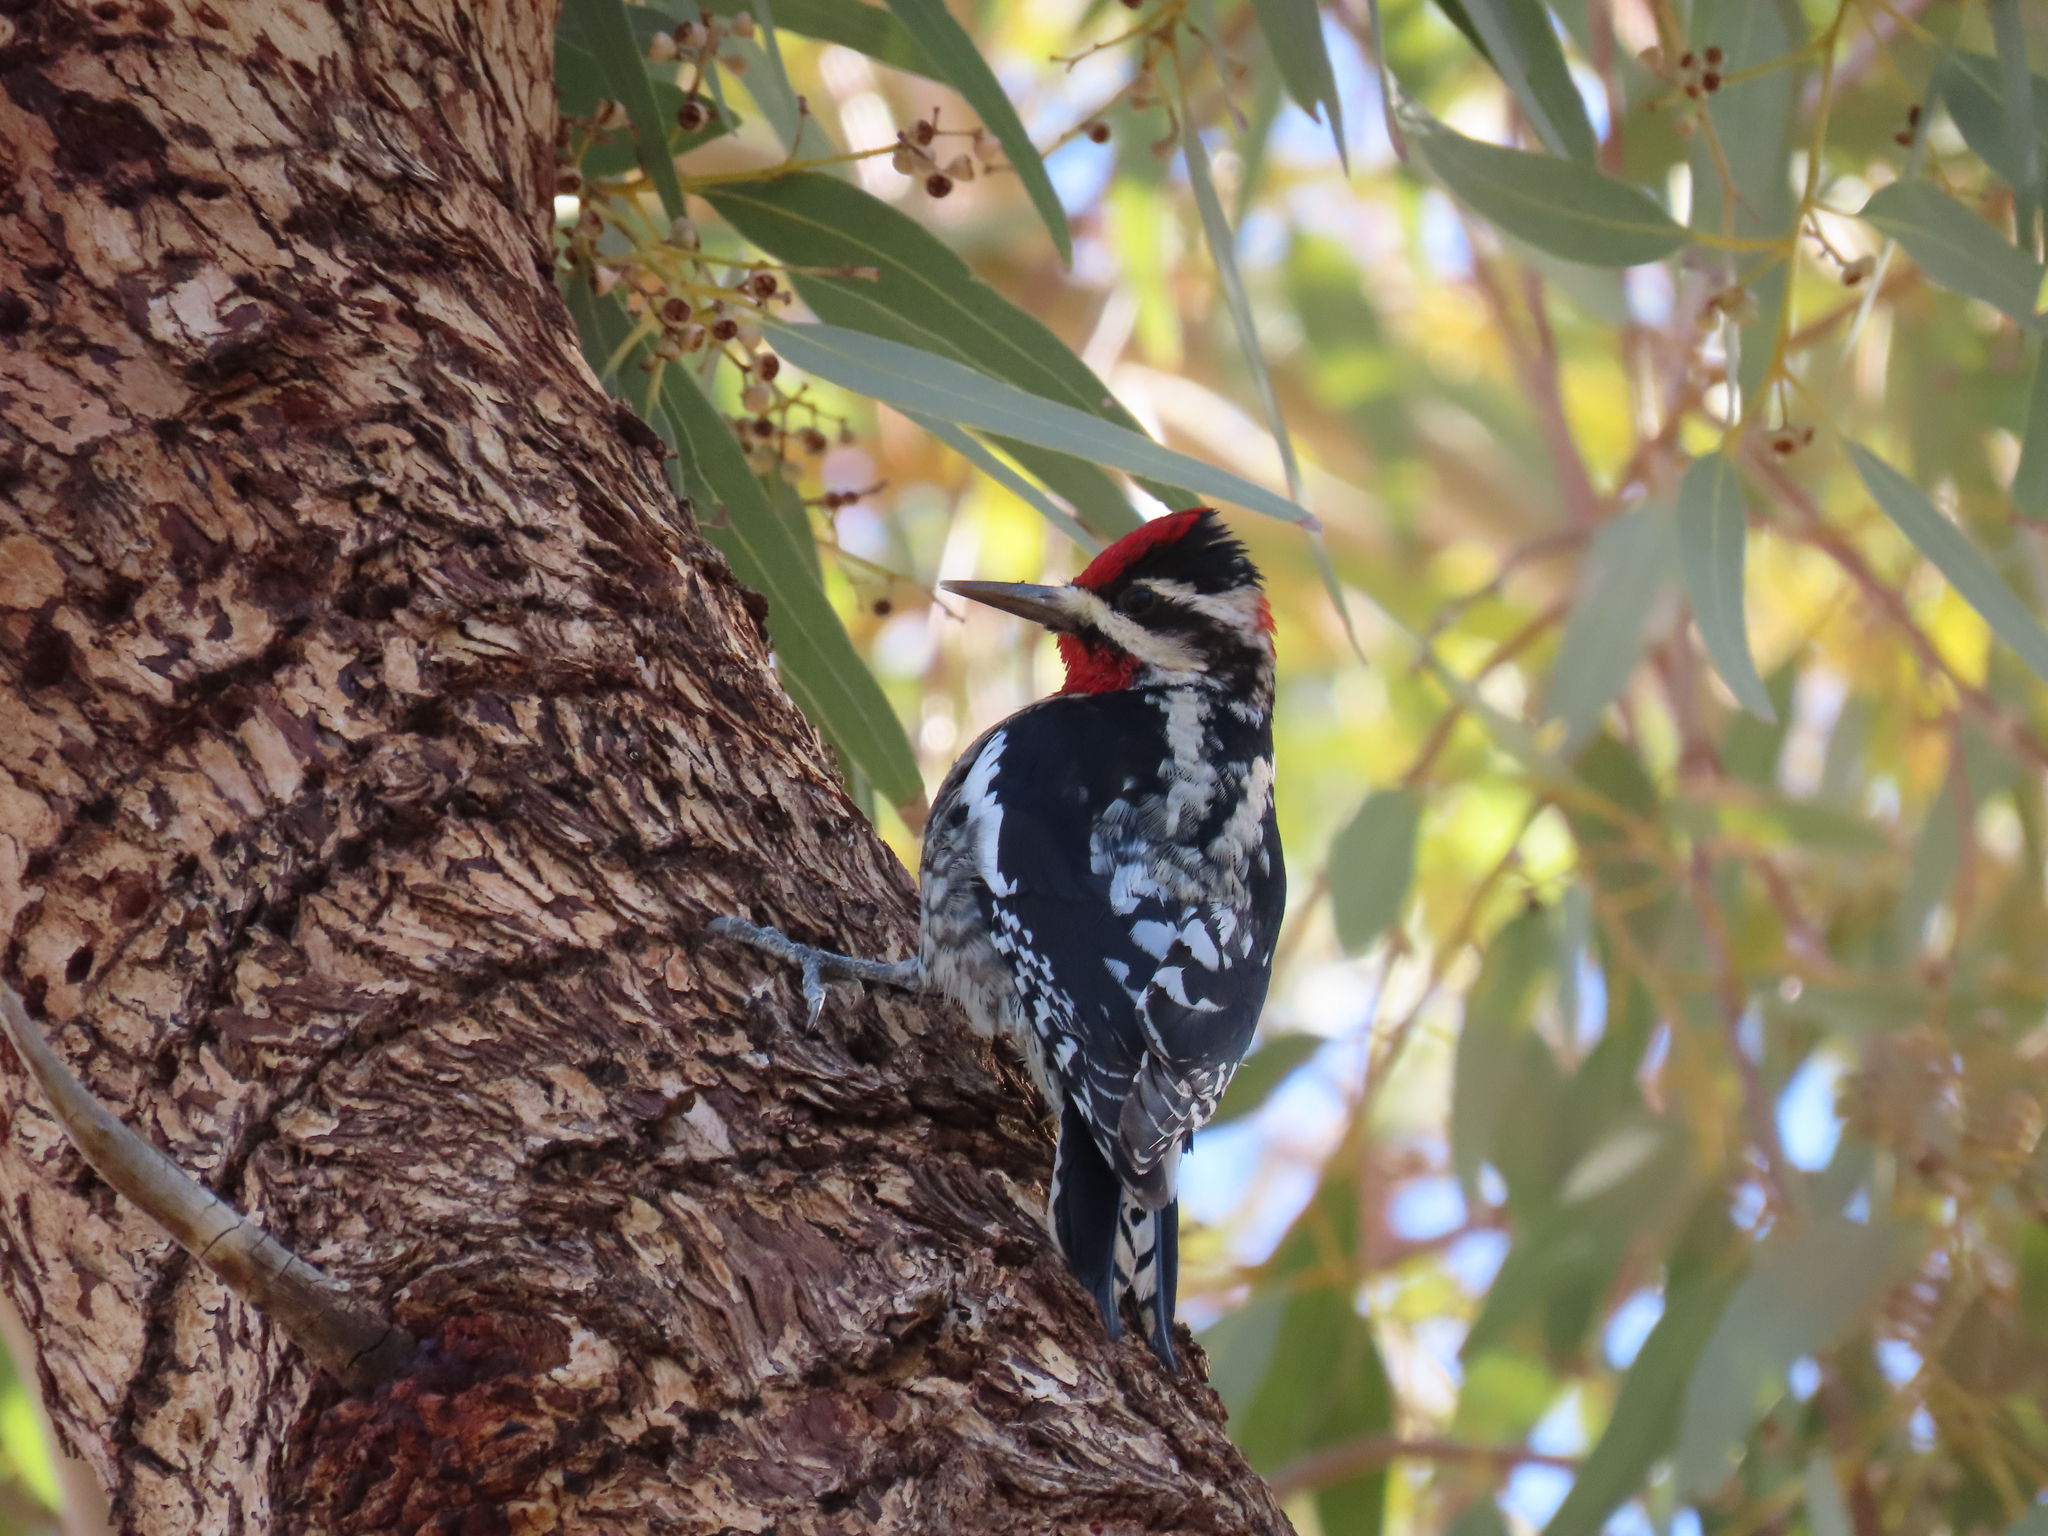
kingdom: Animalia
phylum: Chordata
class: Aves
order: Piciformes
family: Picidae
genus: Sphyrapicus
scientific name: Sphyrapicus nuchalis
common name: Red-naped sapsucker
